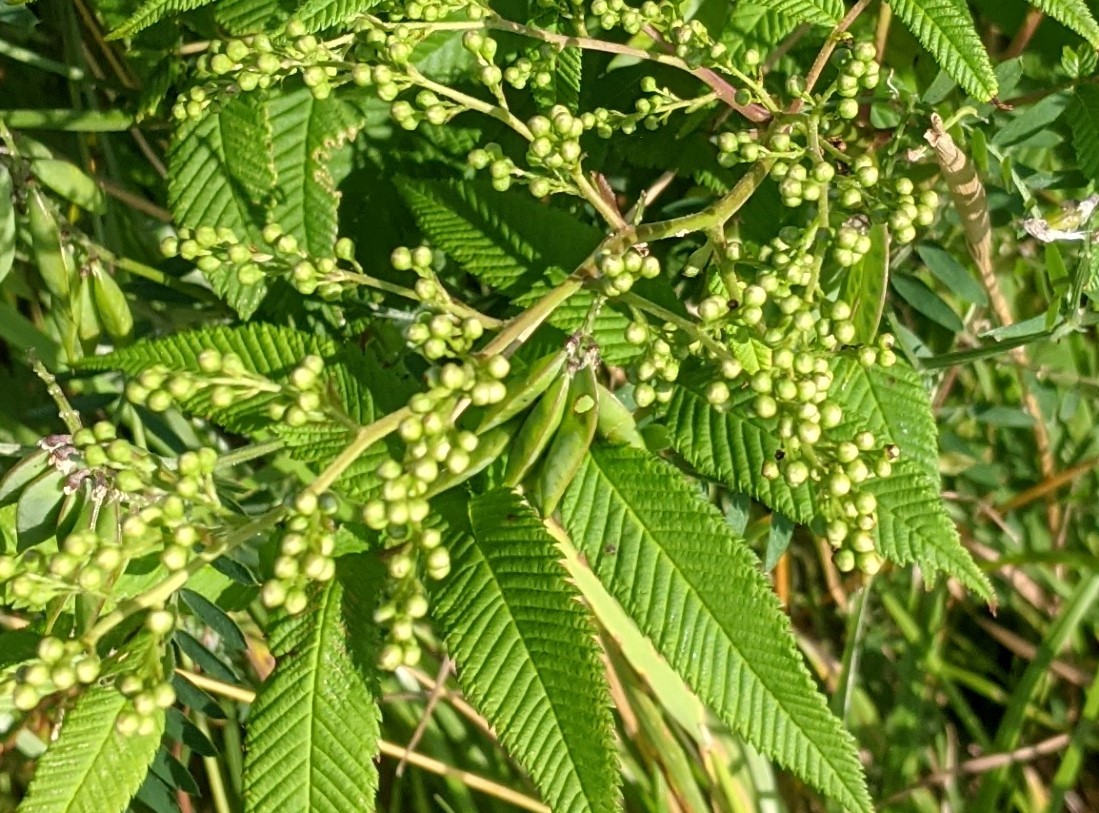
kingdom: Plantae
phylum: Tracheophyta
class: Magnoliopsida
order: Rosales
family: Rosaceae
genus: Sorbaria
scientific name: Sorbaria sorbifolia
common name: False spiraea
